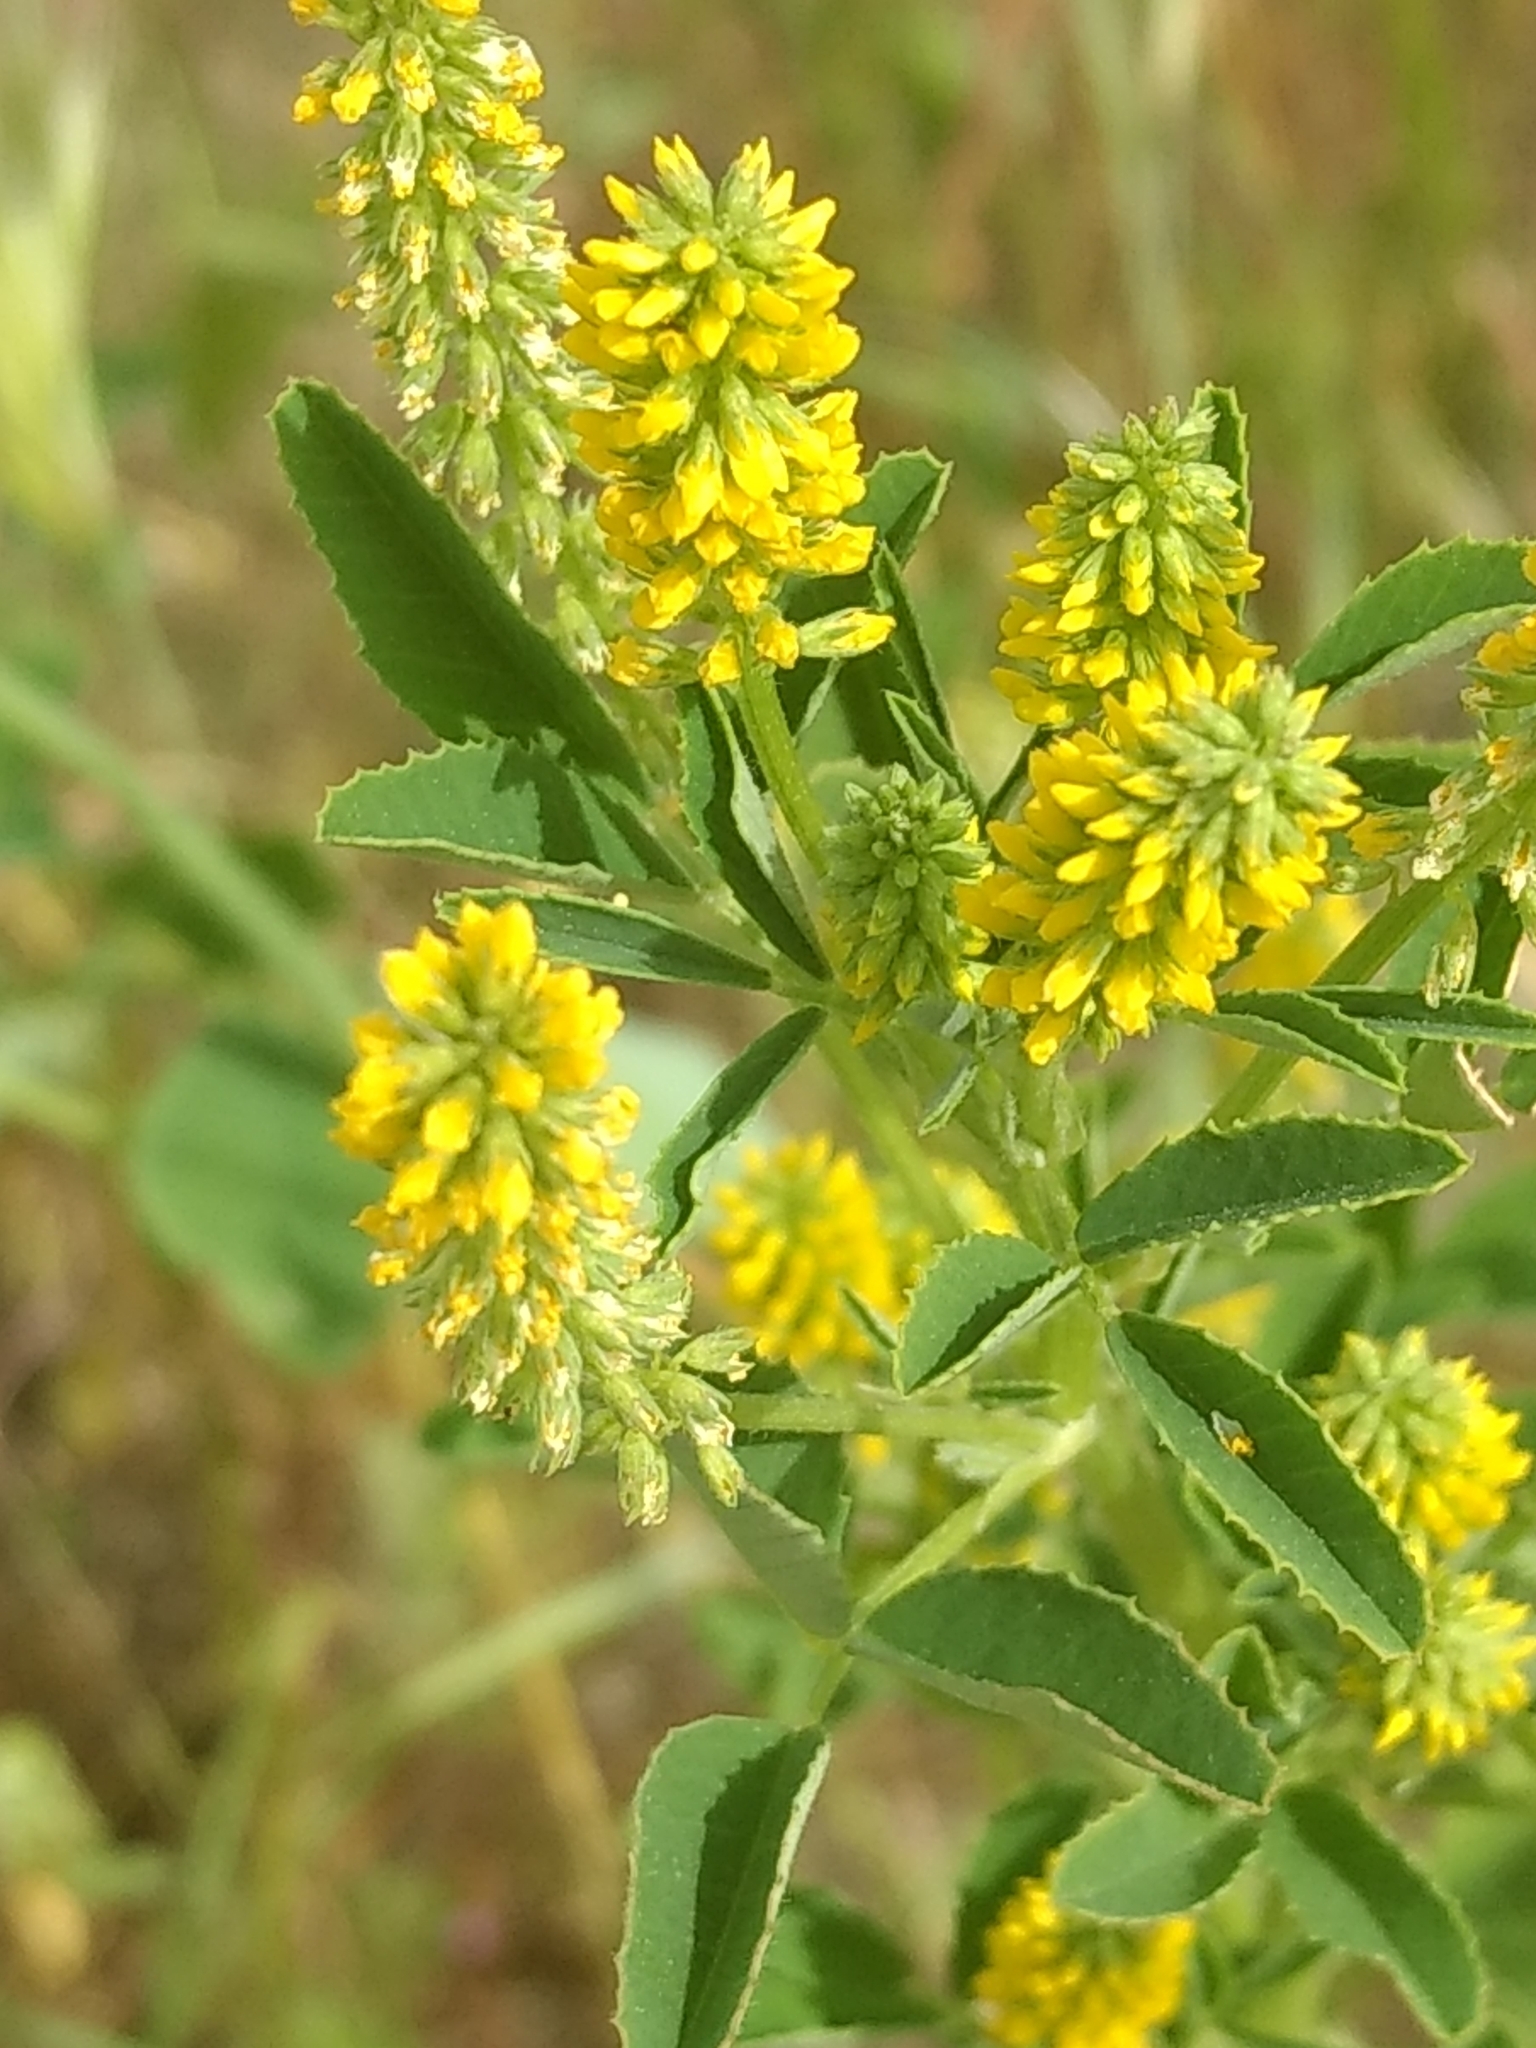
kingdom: Plantae
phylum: Tracheophyta
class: Magnoliopsida
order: Fabales
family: Fabaceae
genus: Melilotus
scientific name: Melilotus indicus
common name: Small melilot
